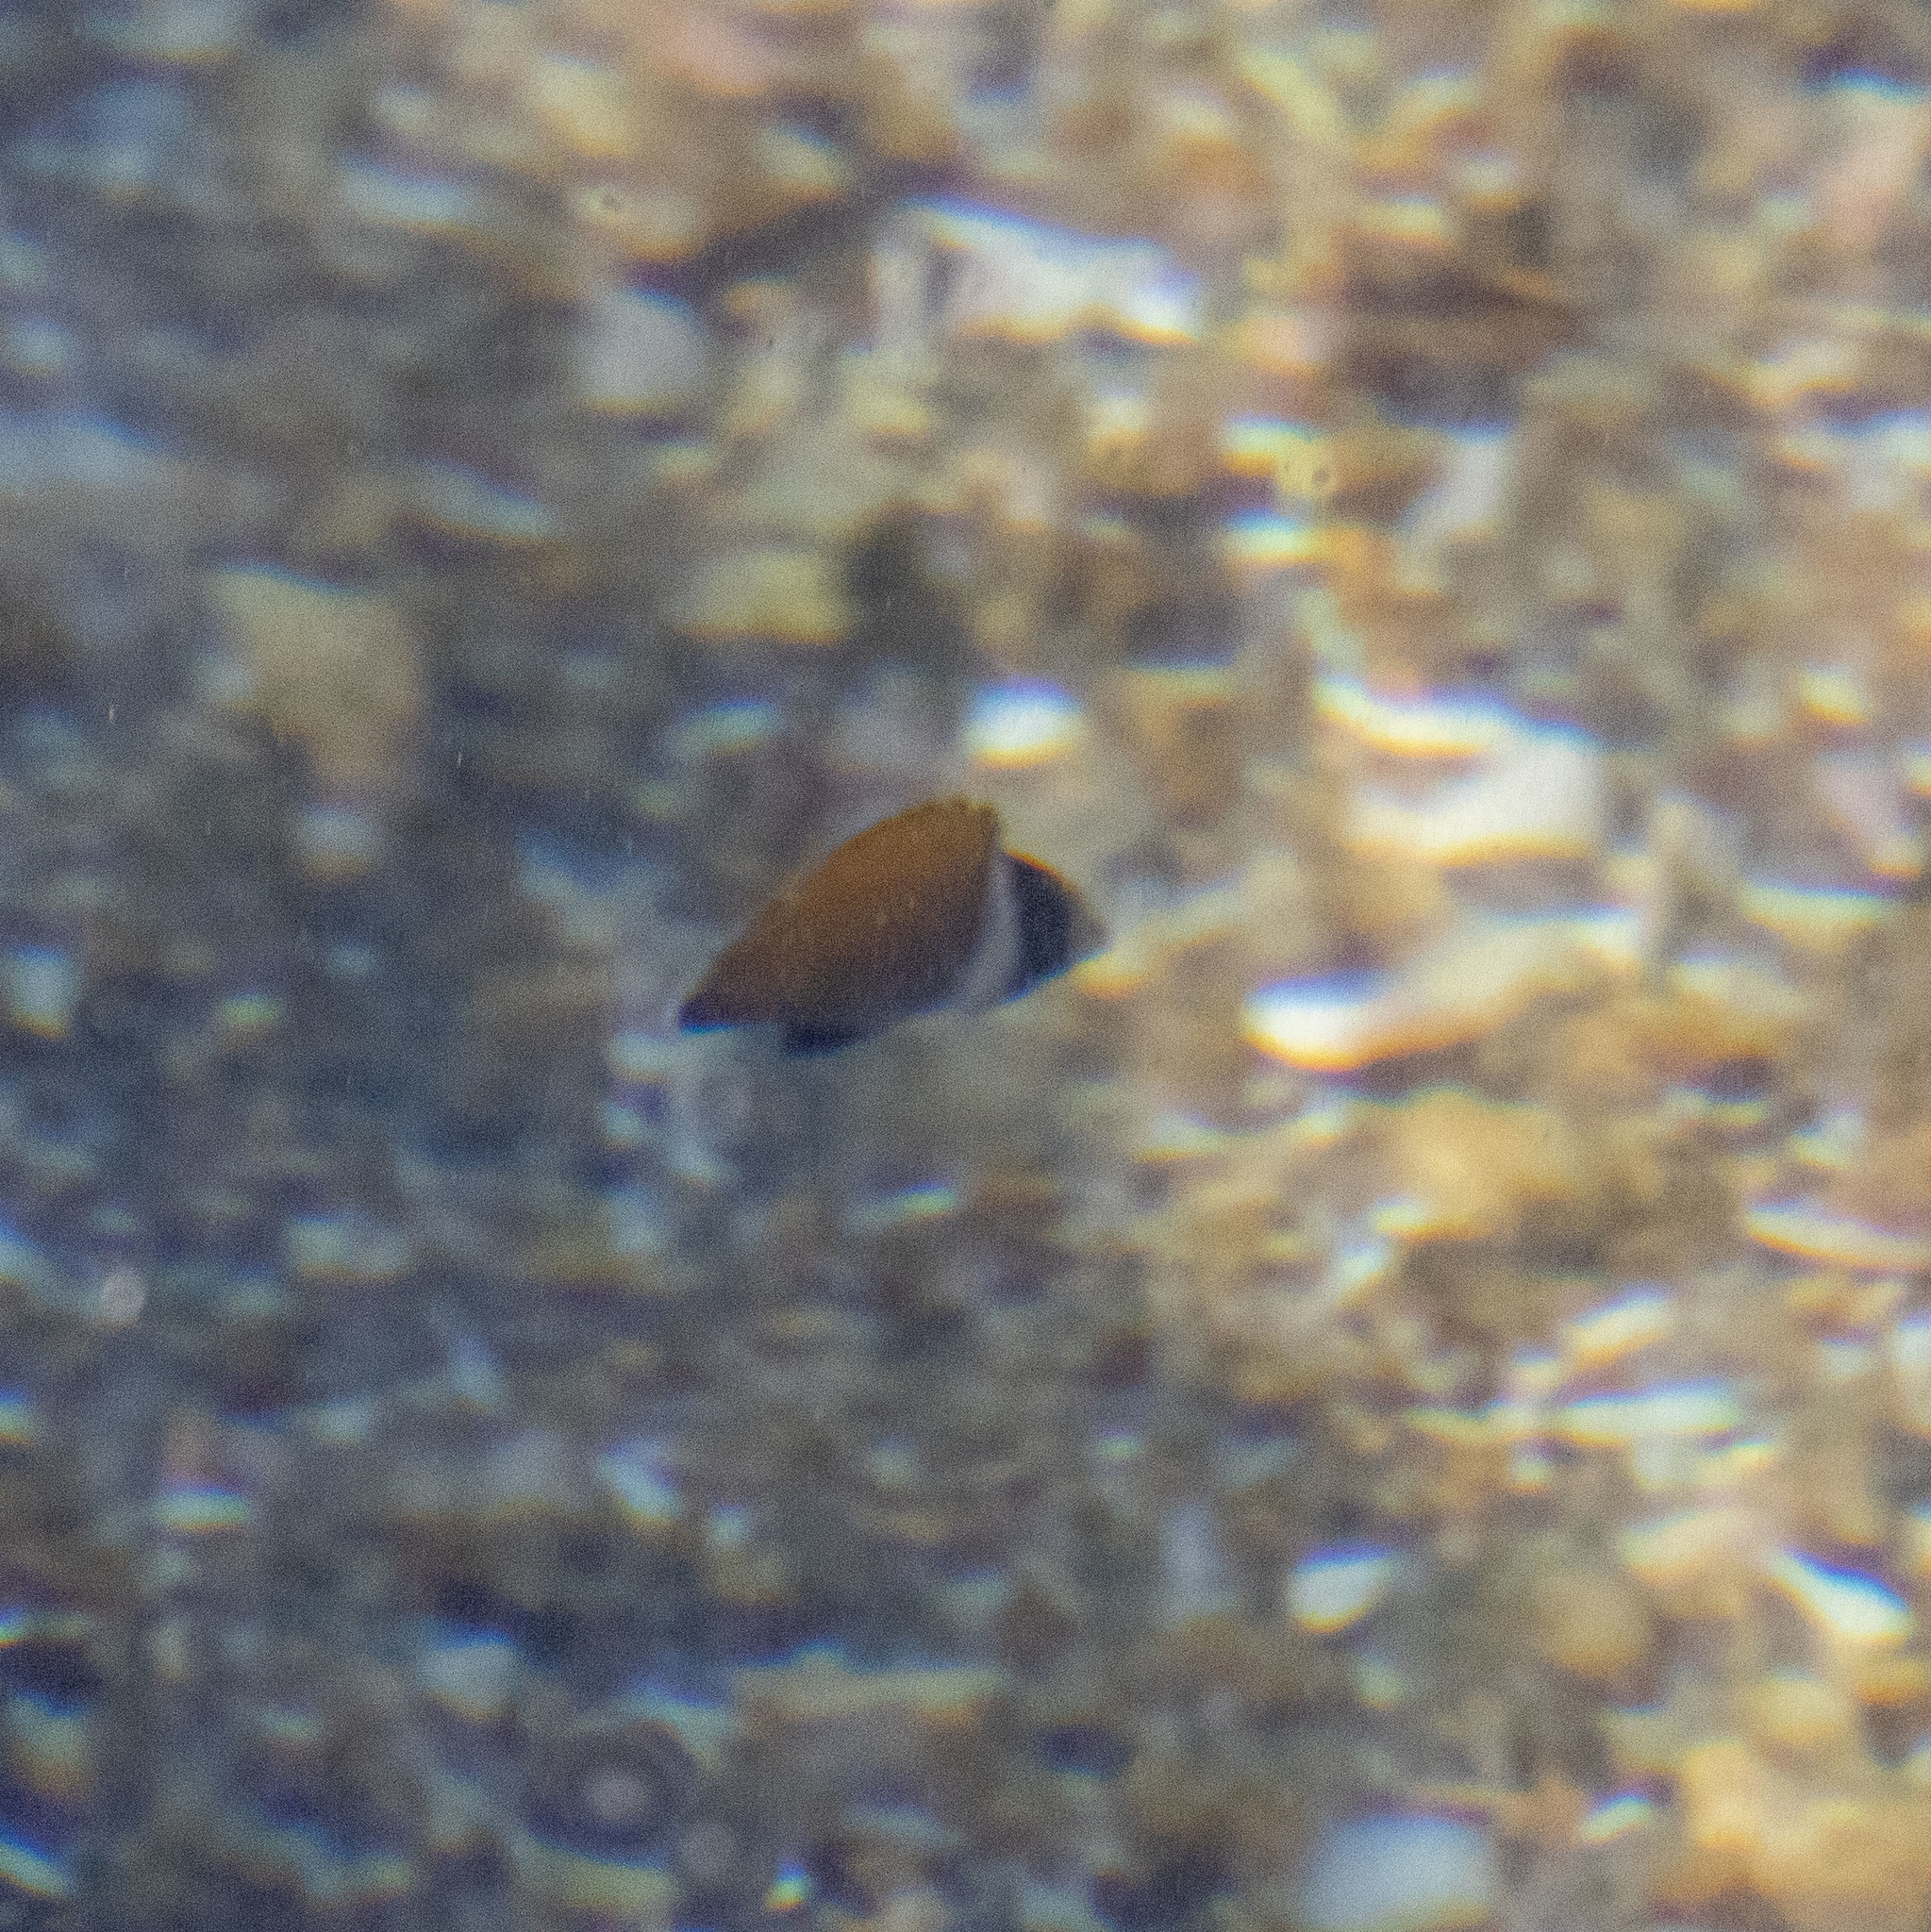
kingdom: Animalia
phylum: Chordata
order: Perciformes
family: Chaetodontidae
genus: Chaetodon
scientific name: Chaetodon collare
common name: Redtail butterflyfish
